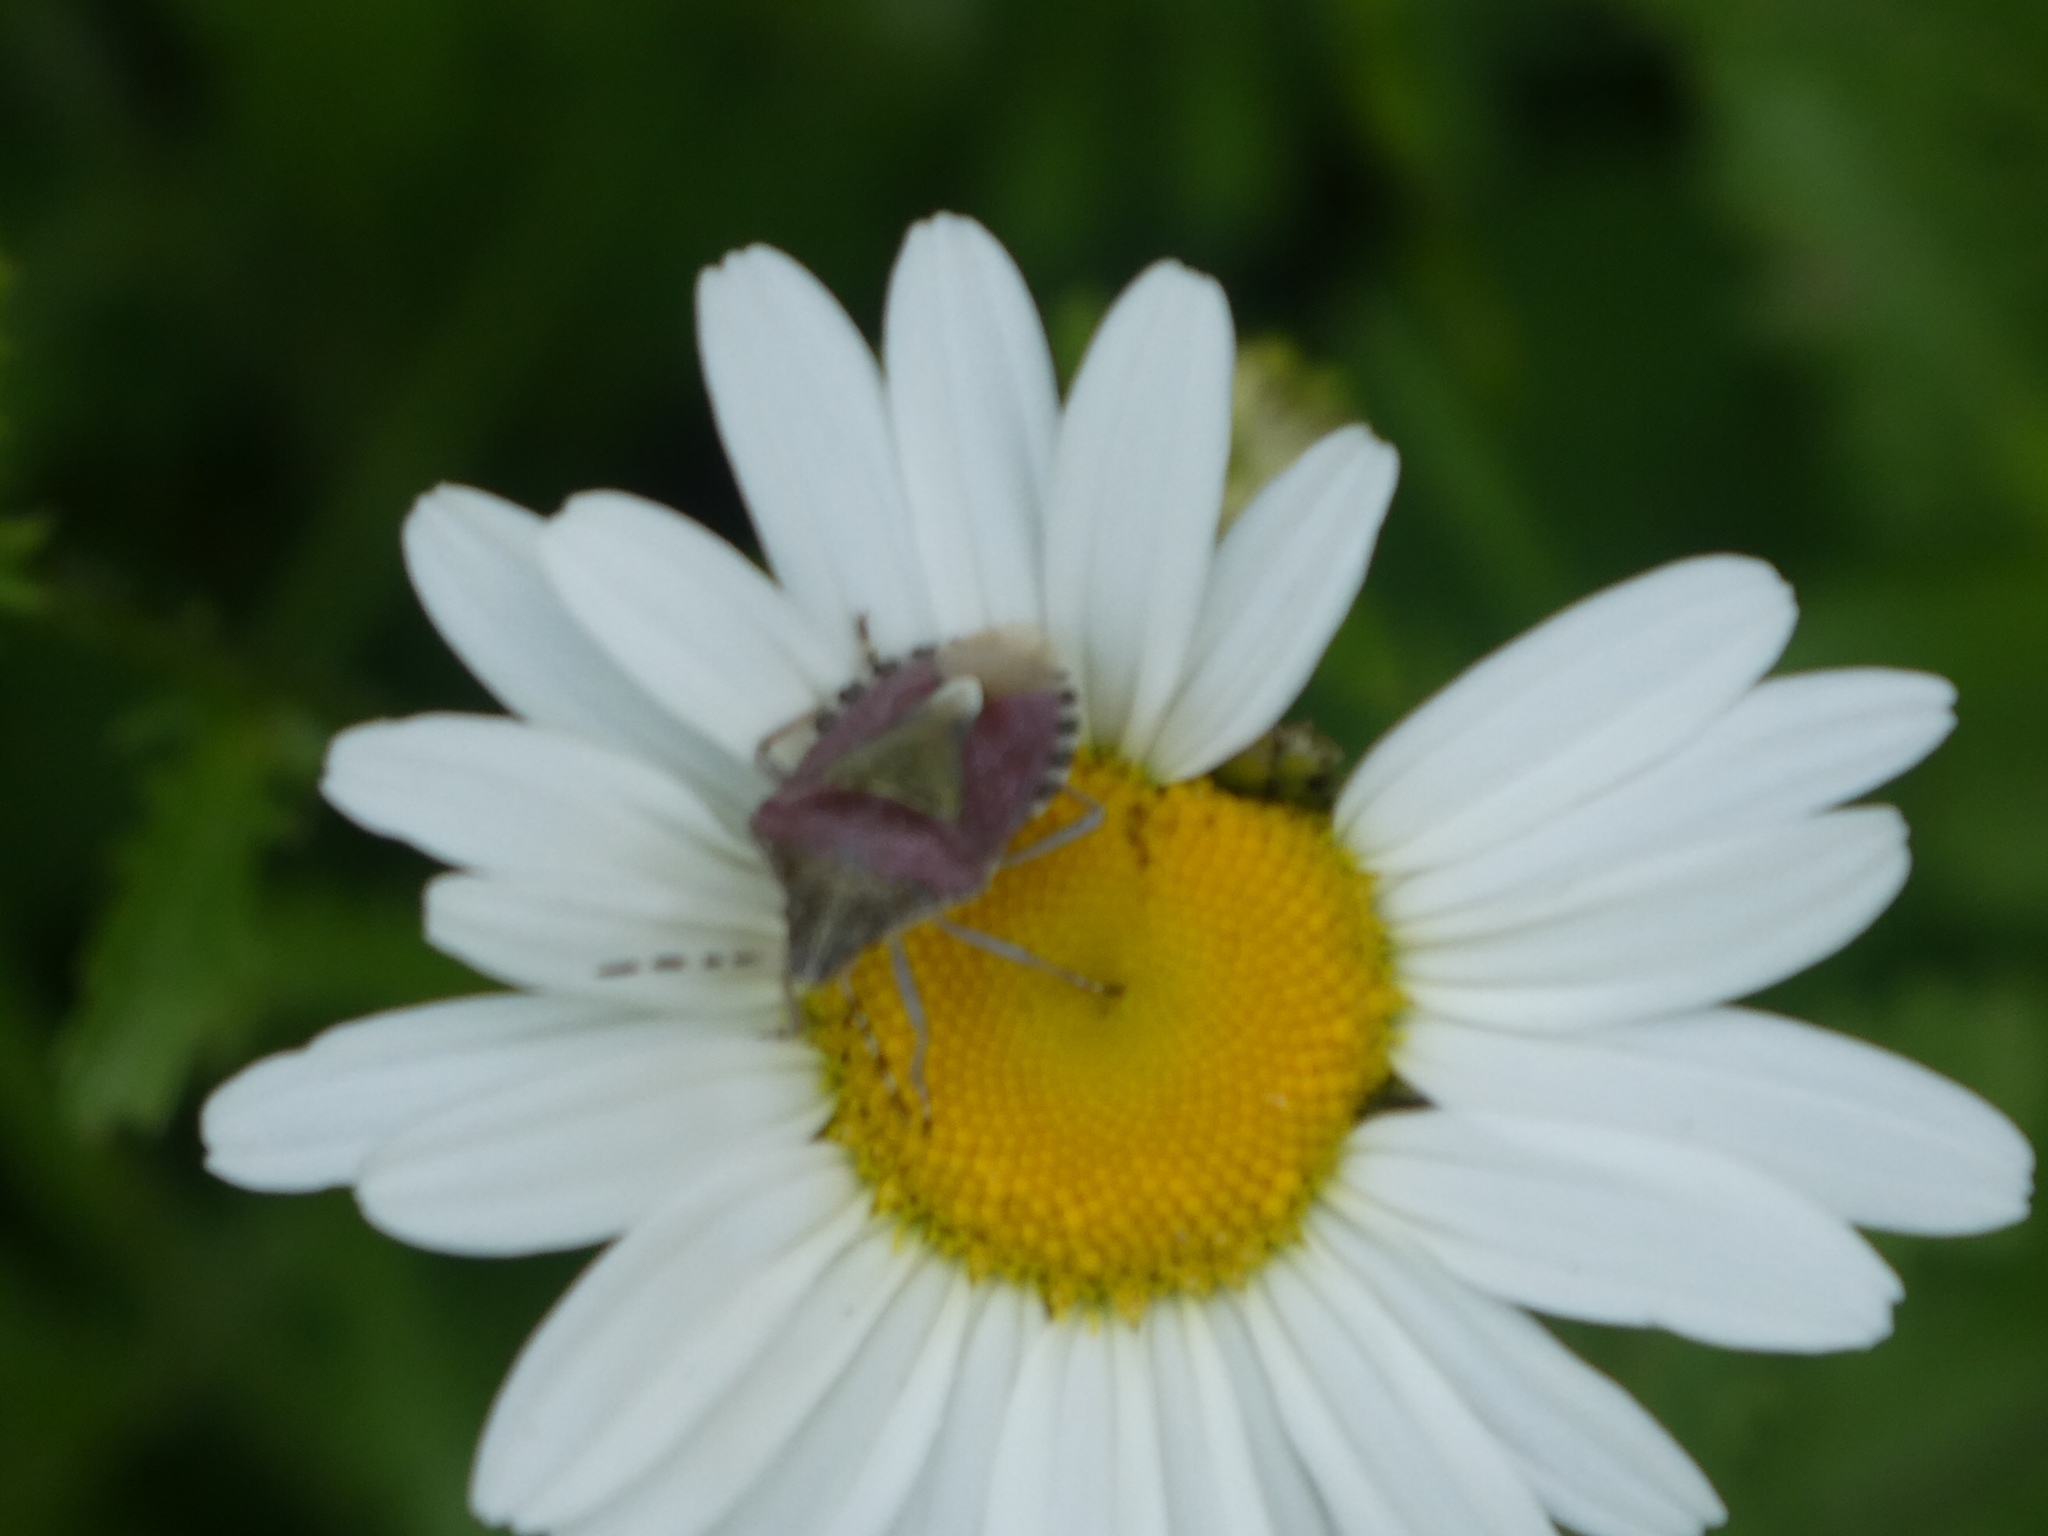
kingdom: Animalia
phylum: Arthropoda
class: Insecta
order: Hemiptera
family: Pentatomidae
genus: Dolycoris
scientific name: Dolycoris baccarum
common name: Sloe bug
